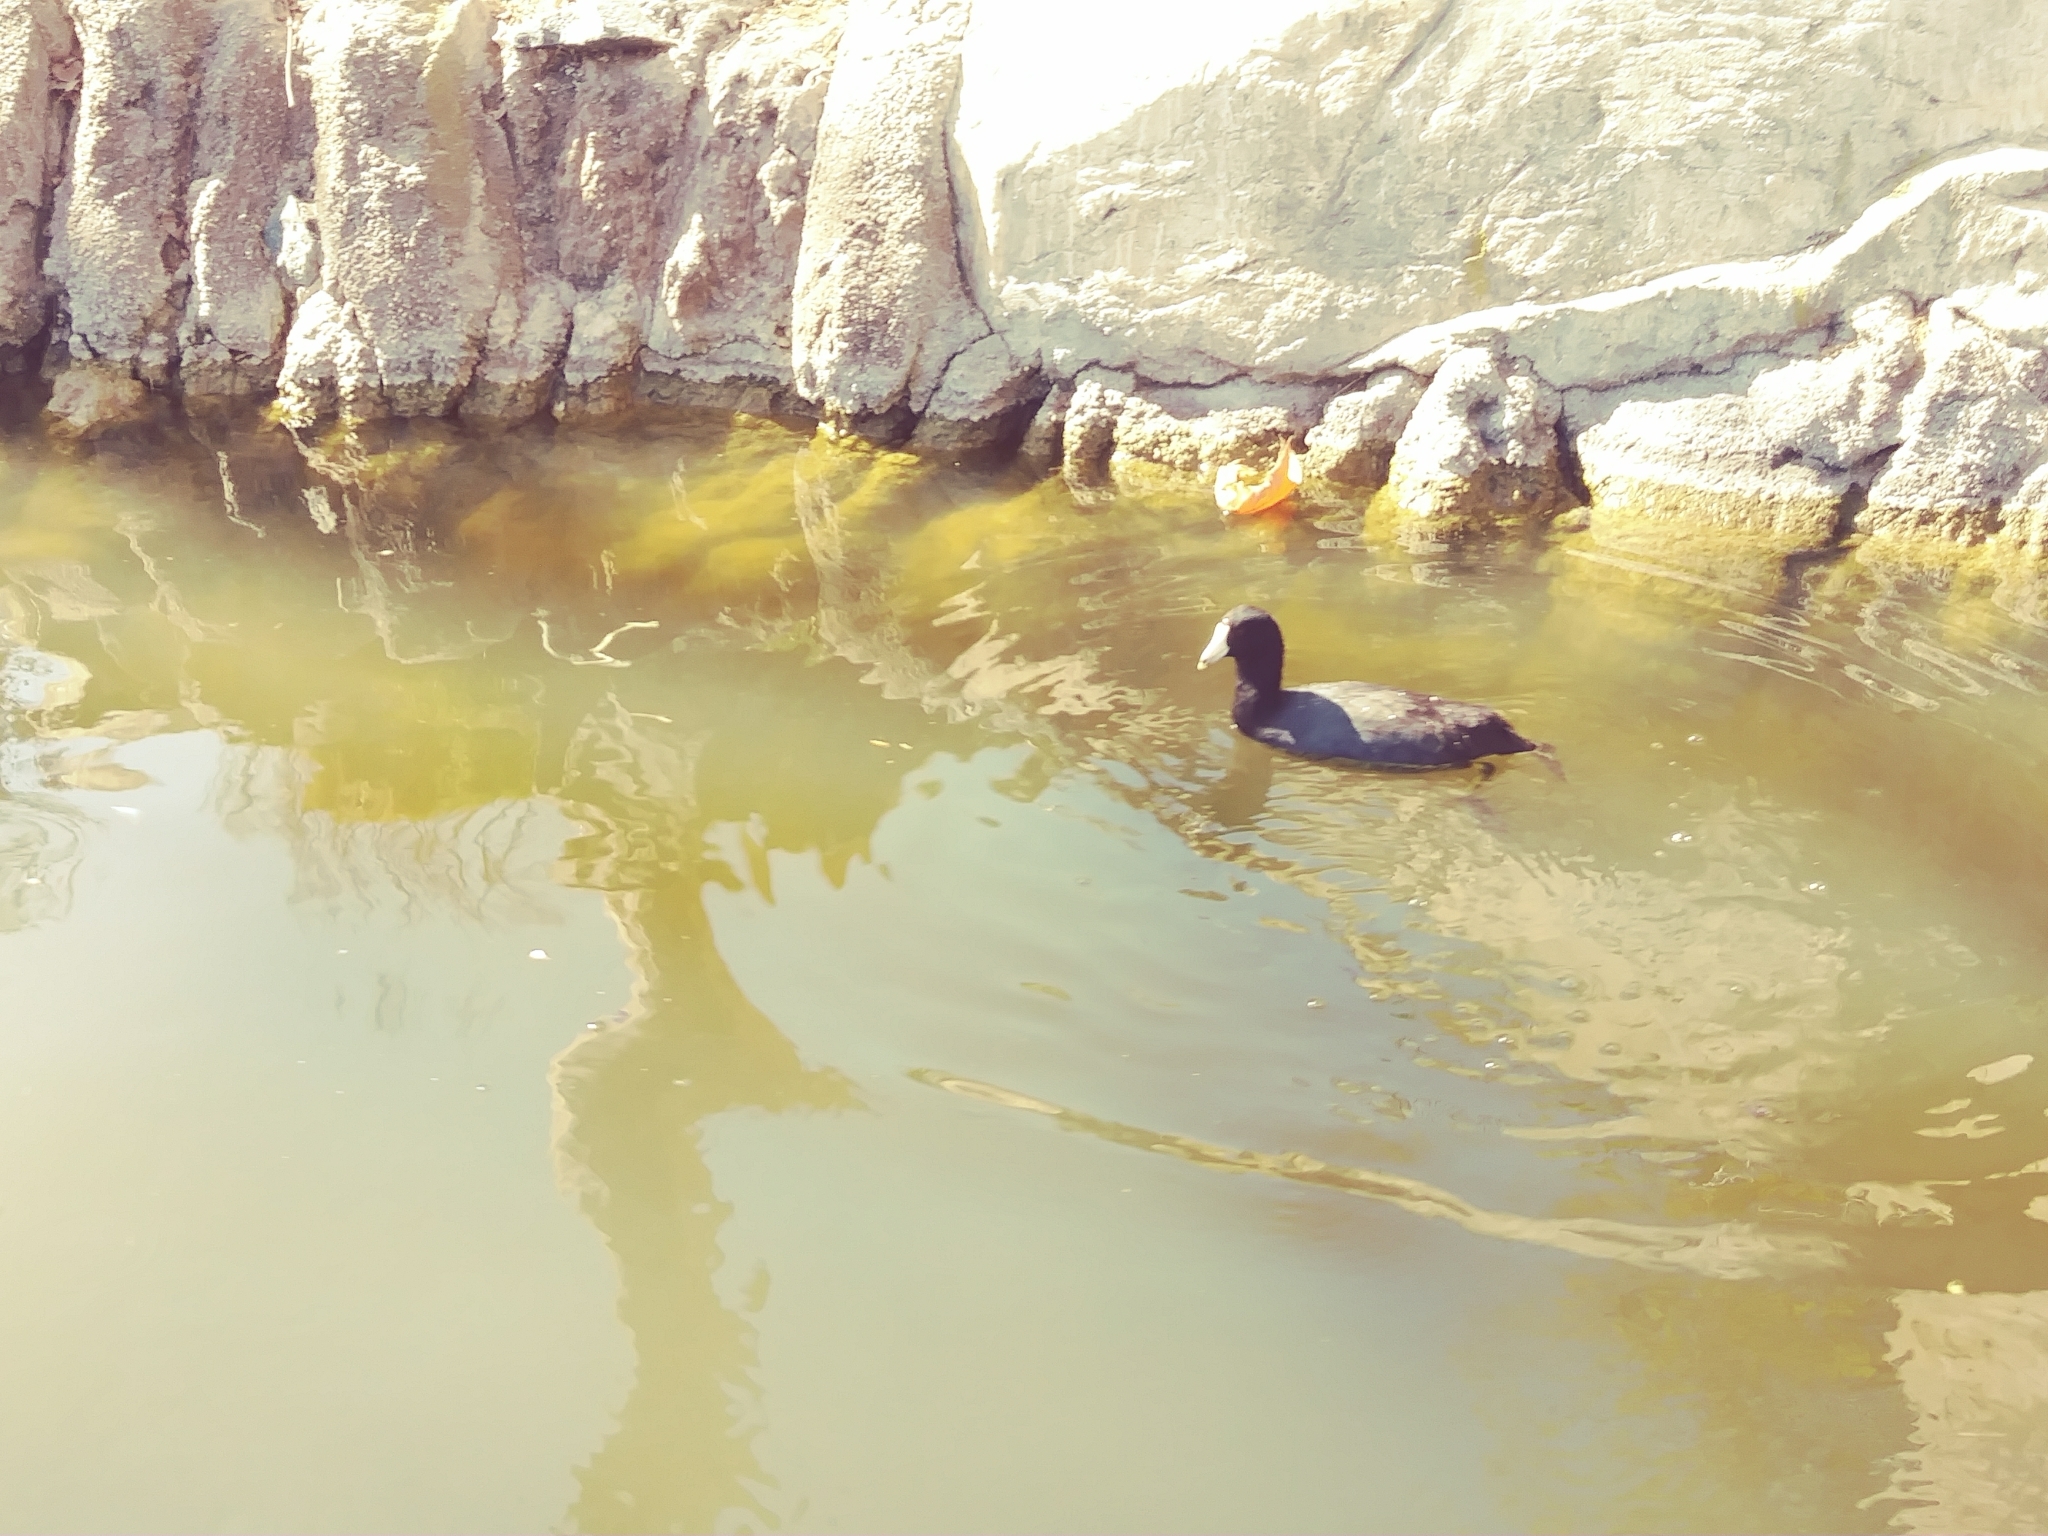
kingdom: Animalia
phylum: Chordata
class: Aves
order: Gruiformes
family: Rallidae
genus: Fulica
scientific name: Fulica americana
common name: American coot
